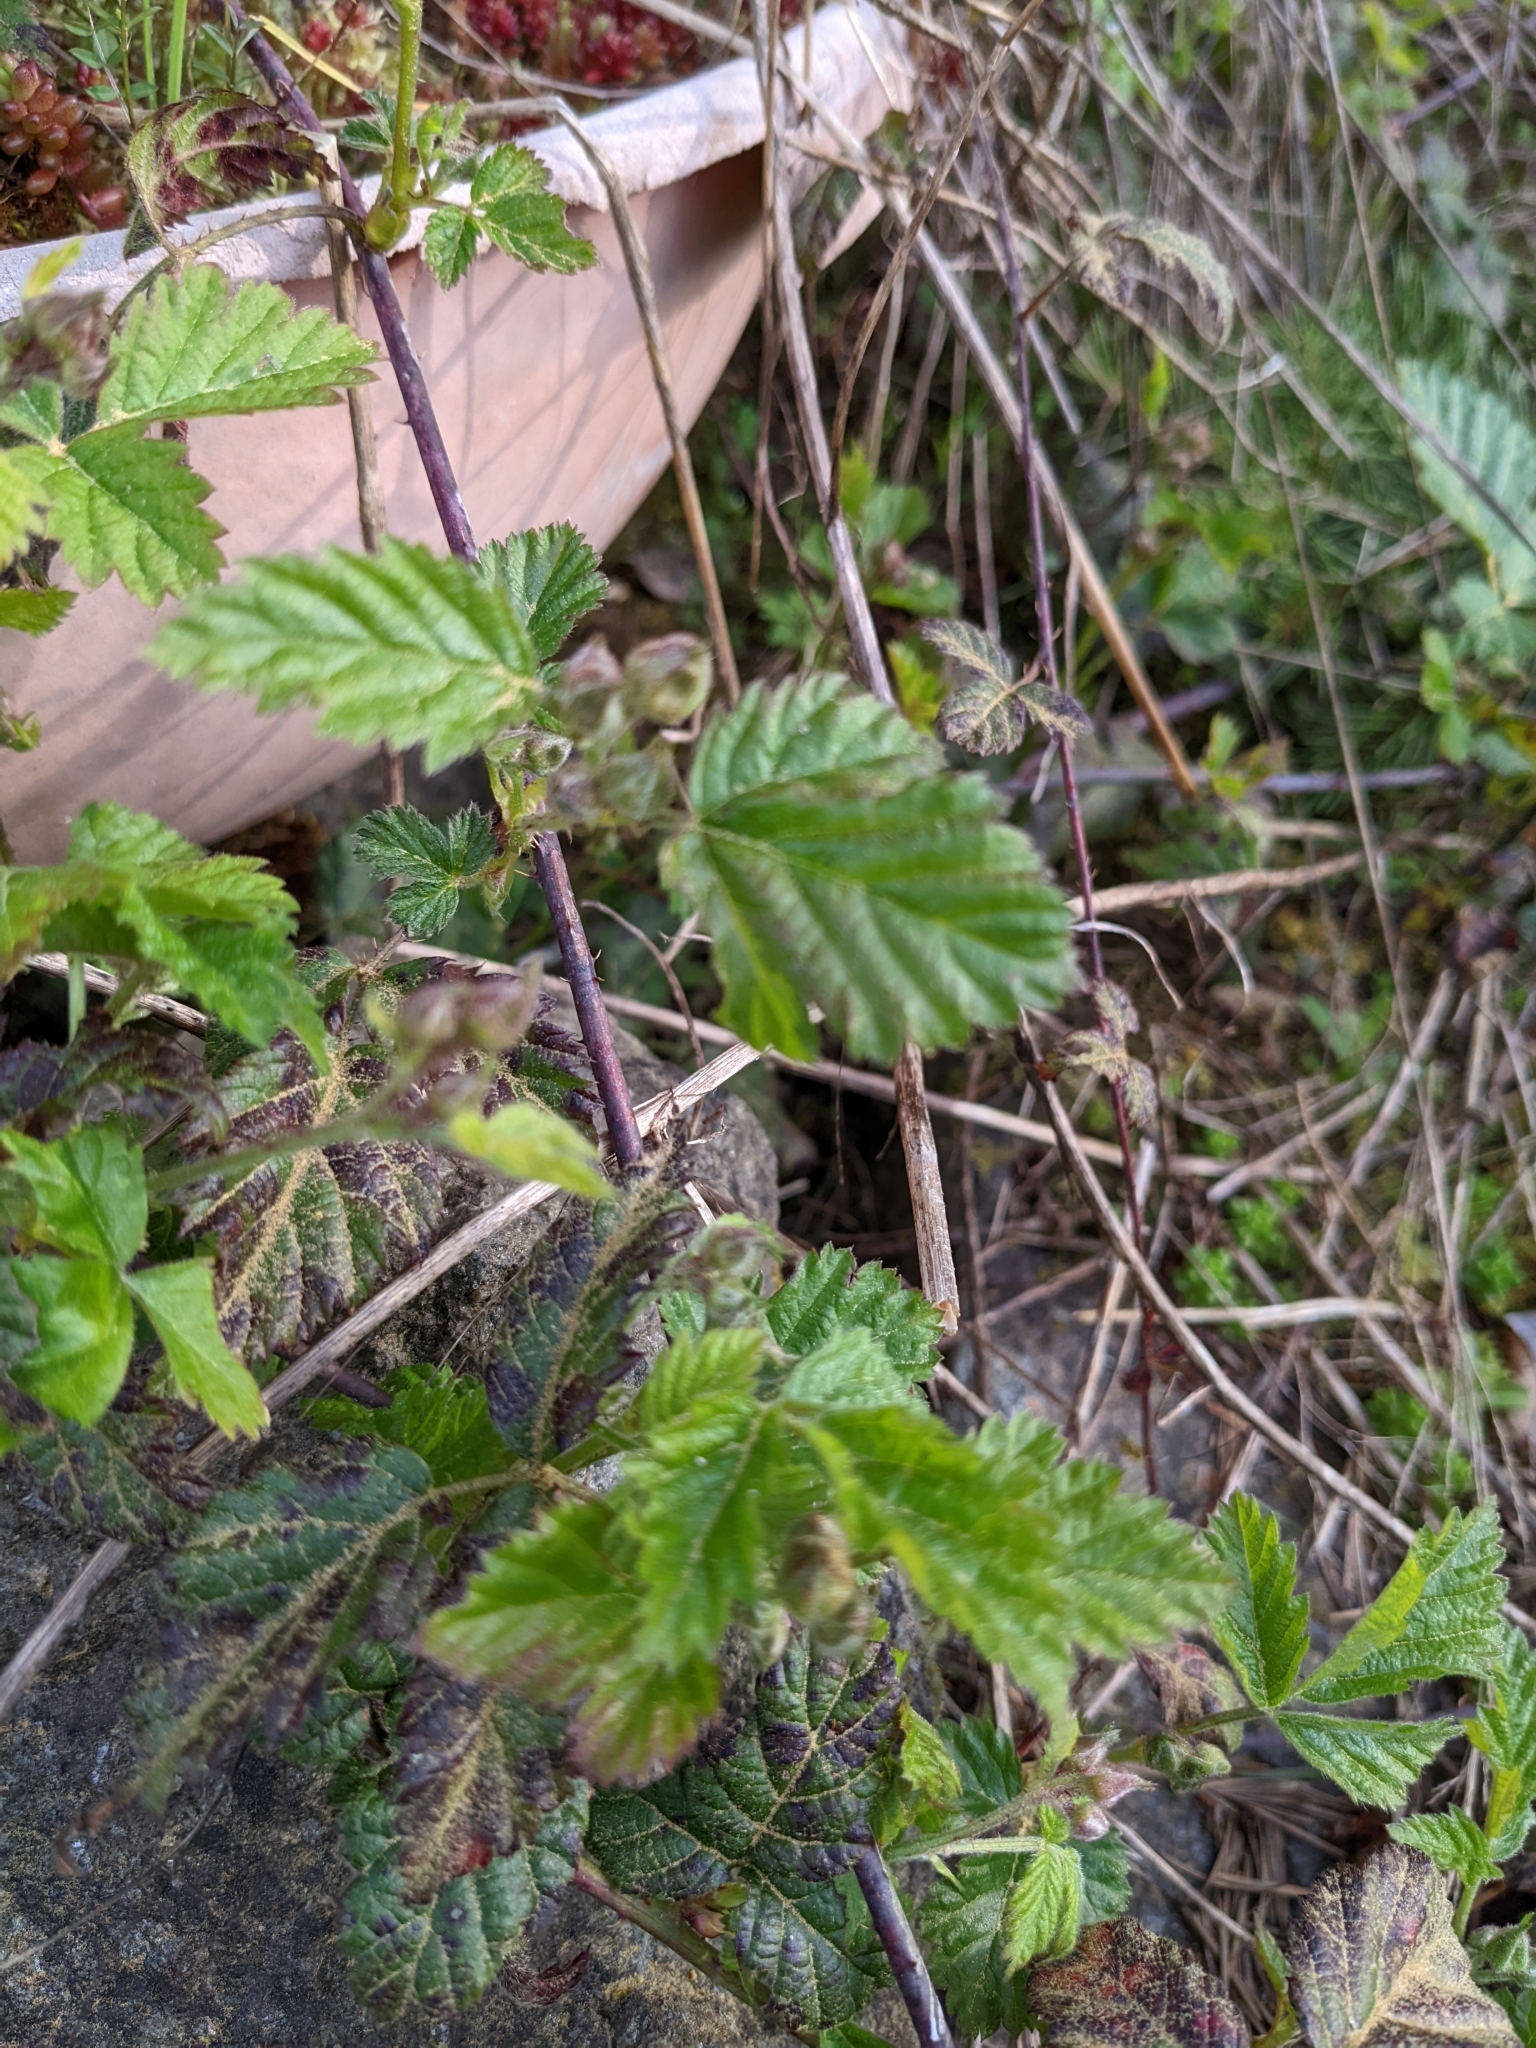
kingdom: Plantae
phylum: Tracheophyta
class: Magnoliopsida
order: Rosales
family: Rosaceae
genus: Rubus
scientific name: Rubus ursinus
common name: Pacific blackberry
